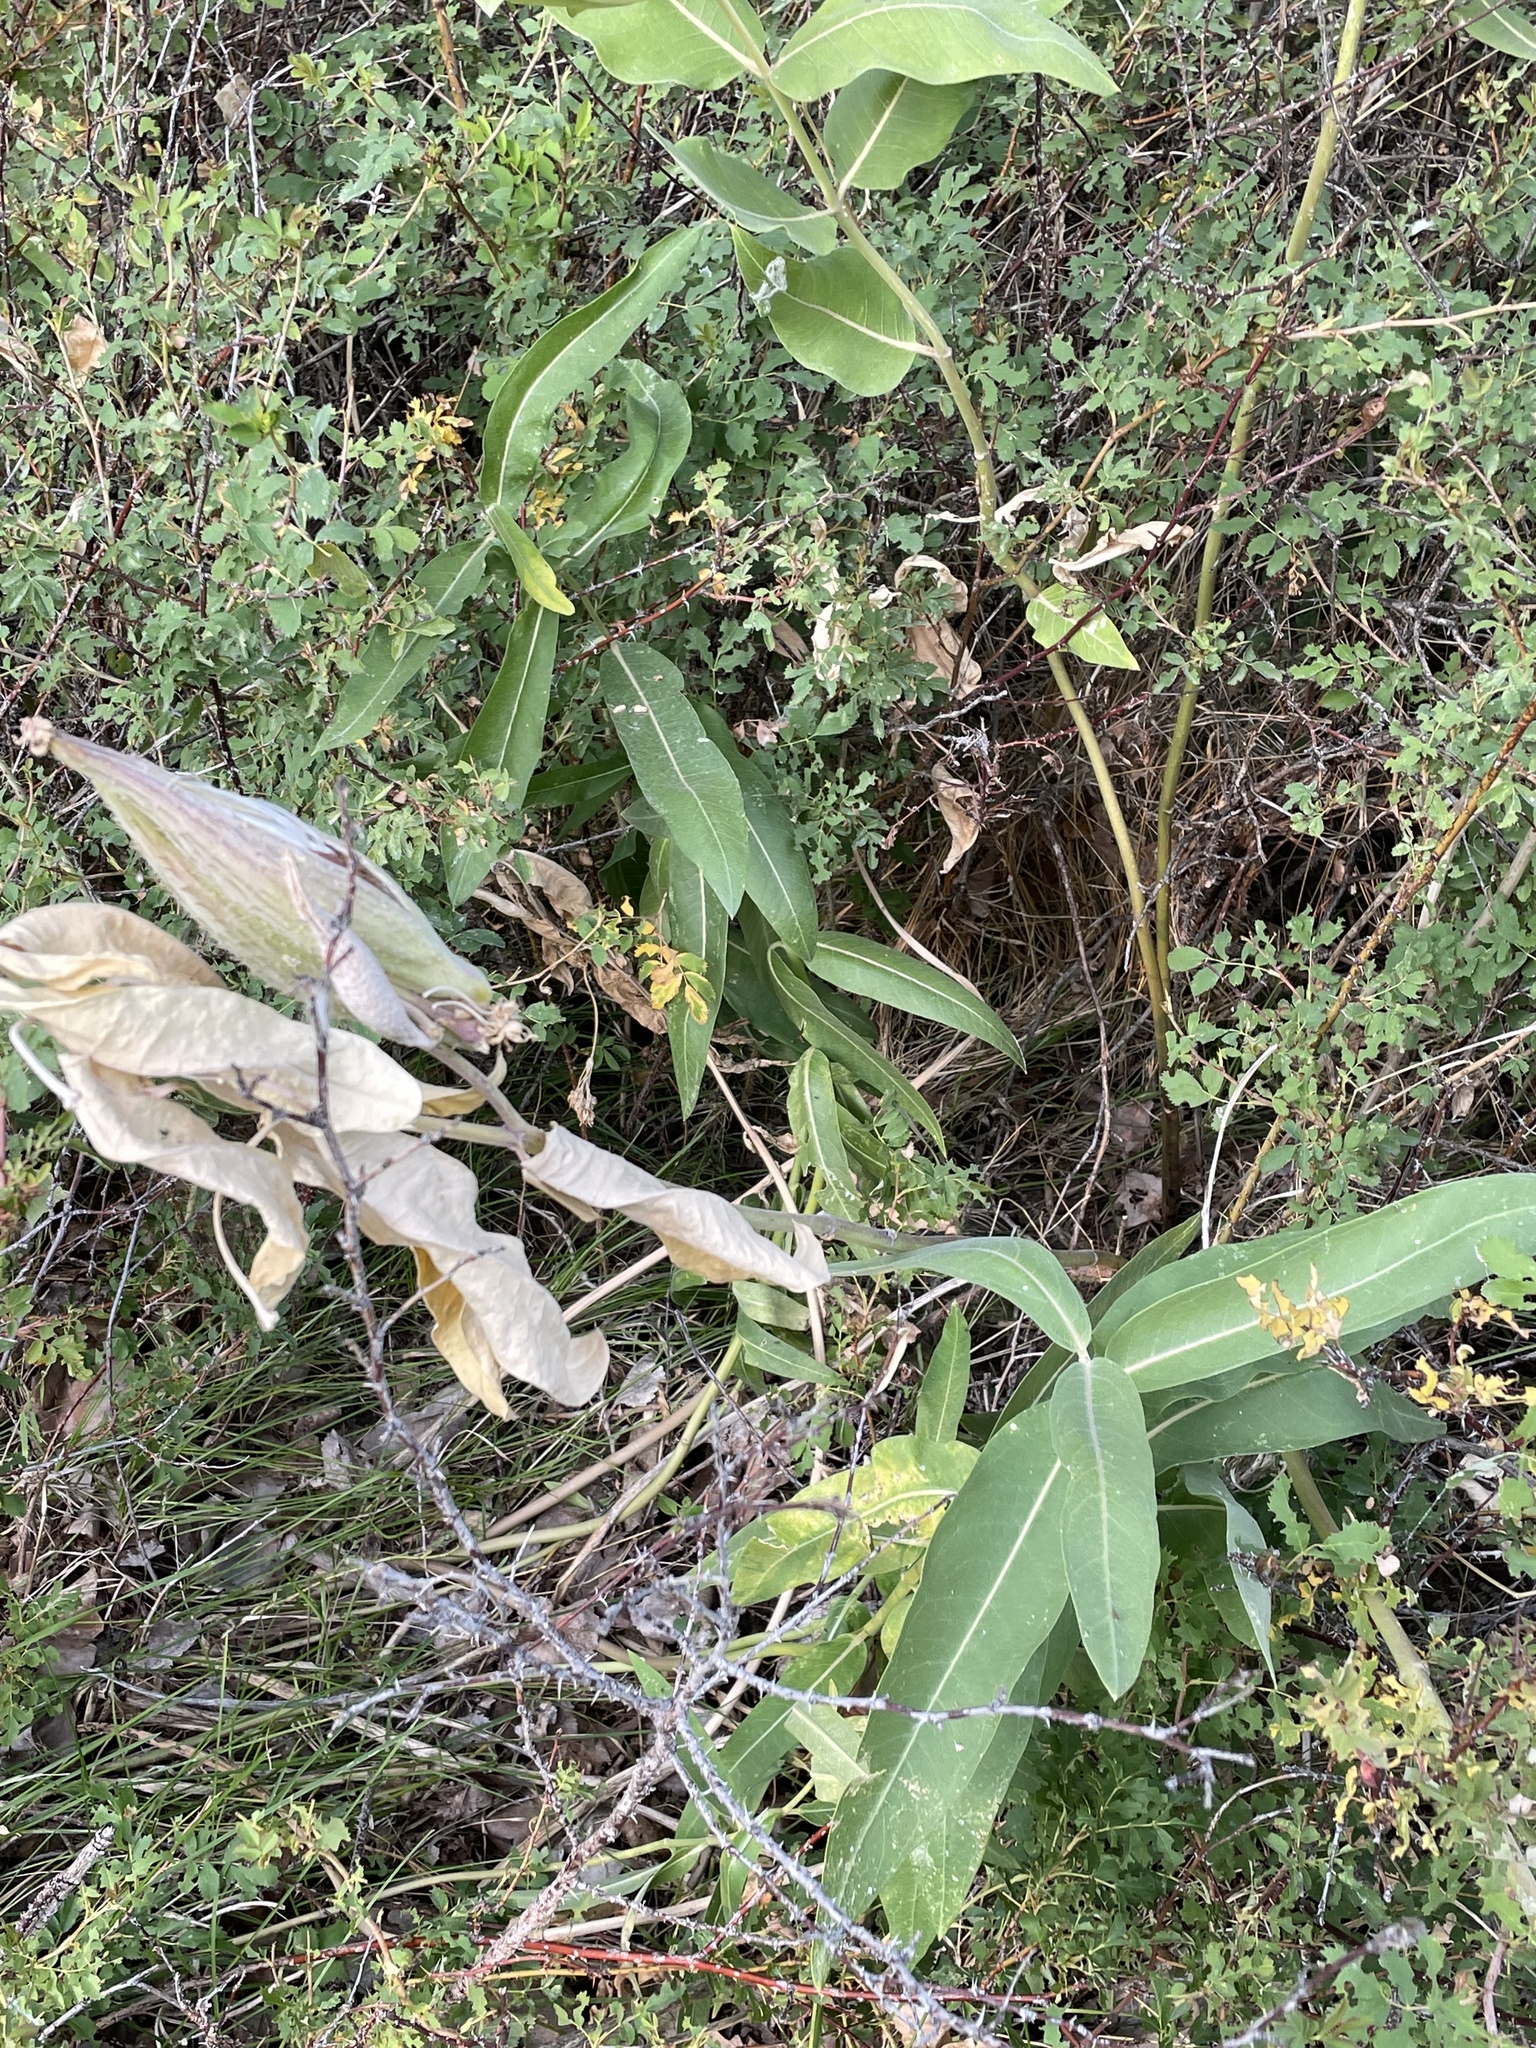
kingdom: Plantae
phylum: Tracheophyta
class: Magnoliopsida
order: Gentianales
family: Apocynaceae
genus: Asclepias
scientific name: Asclepias speciosa
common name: Showy milkweed
